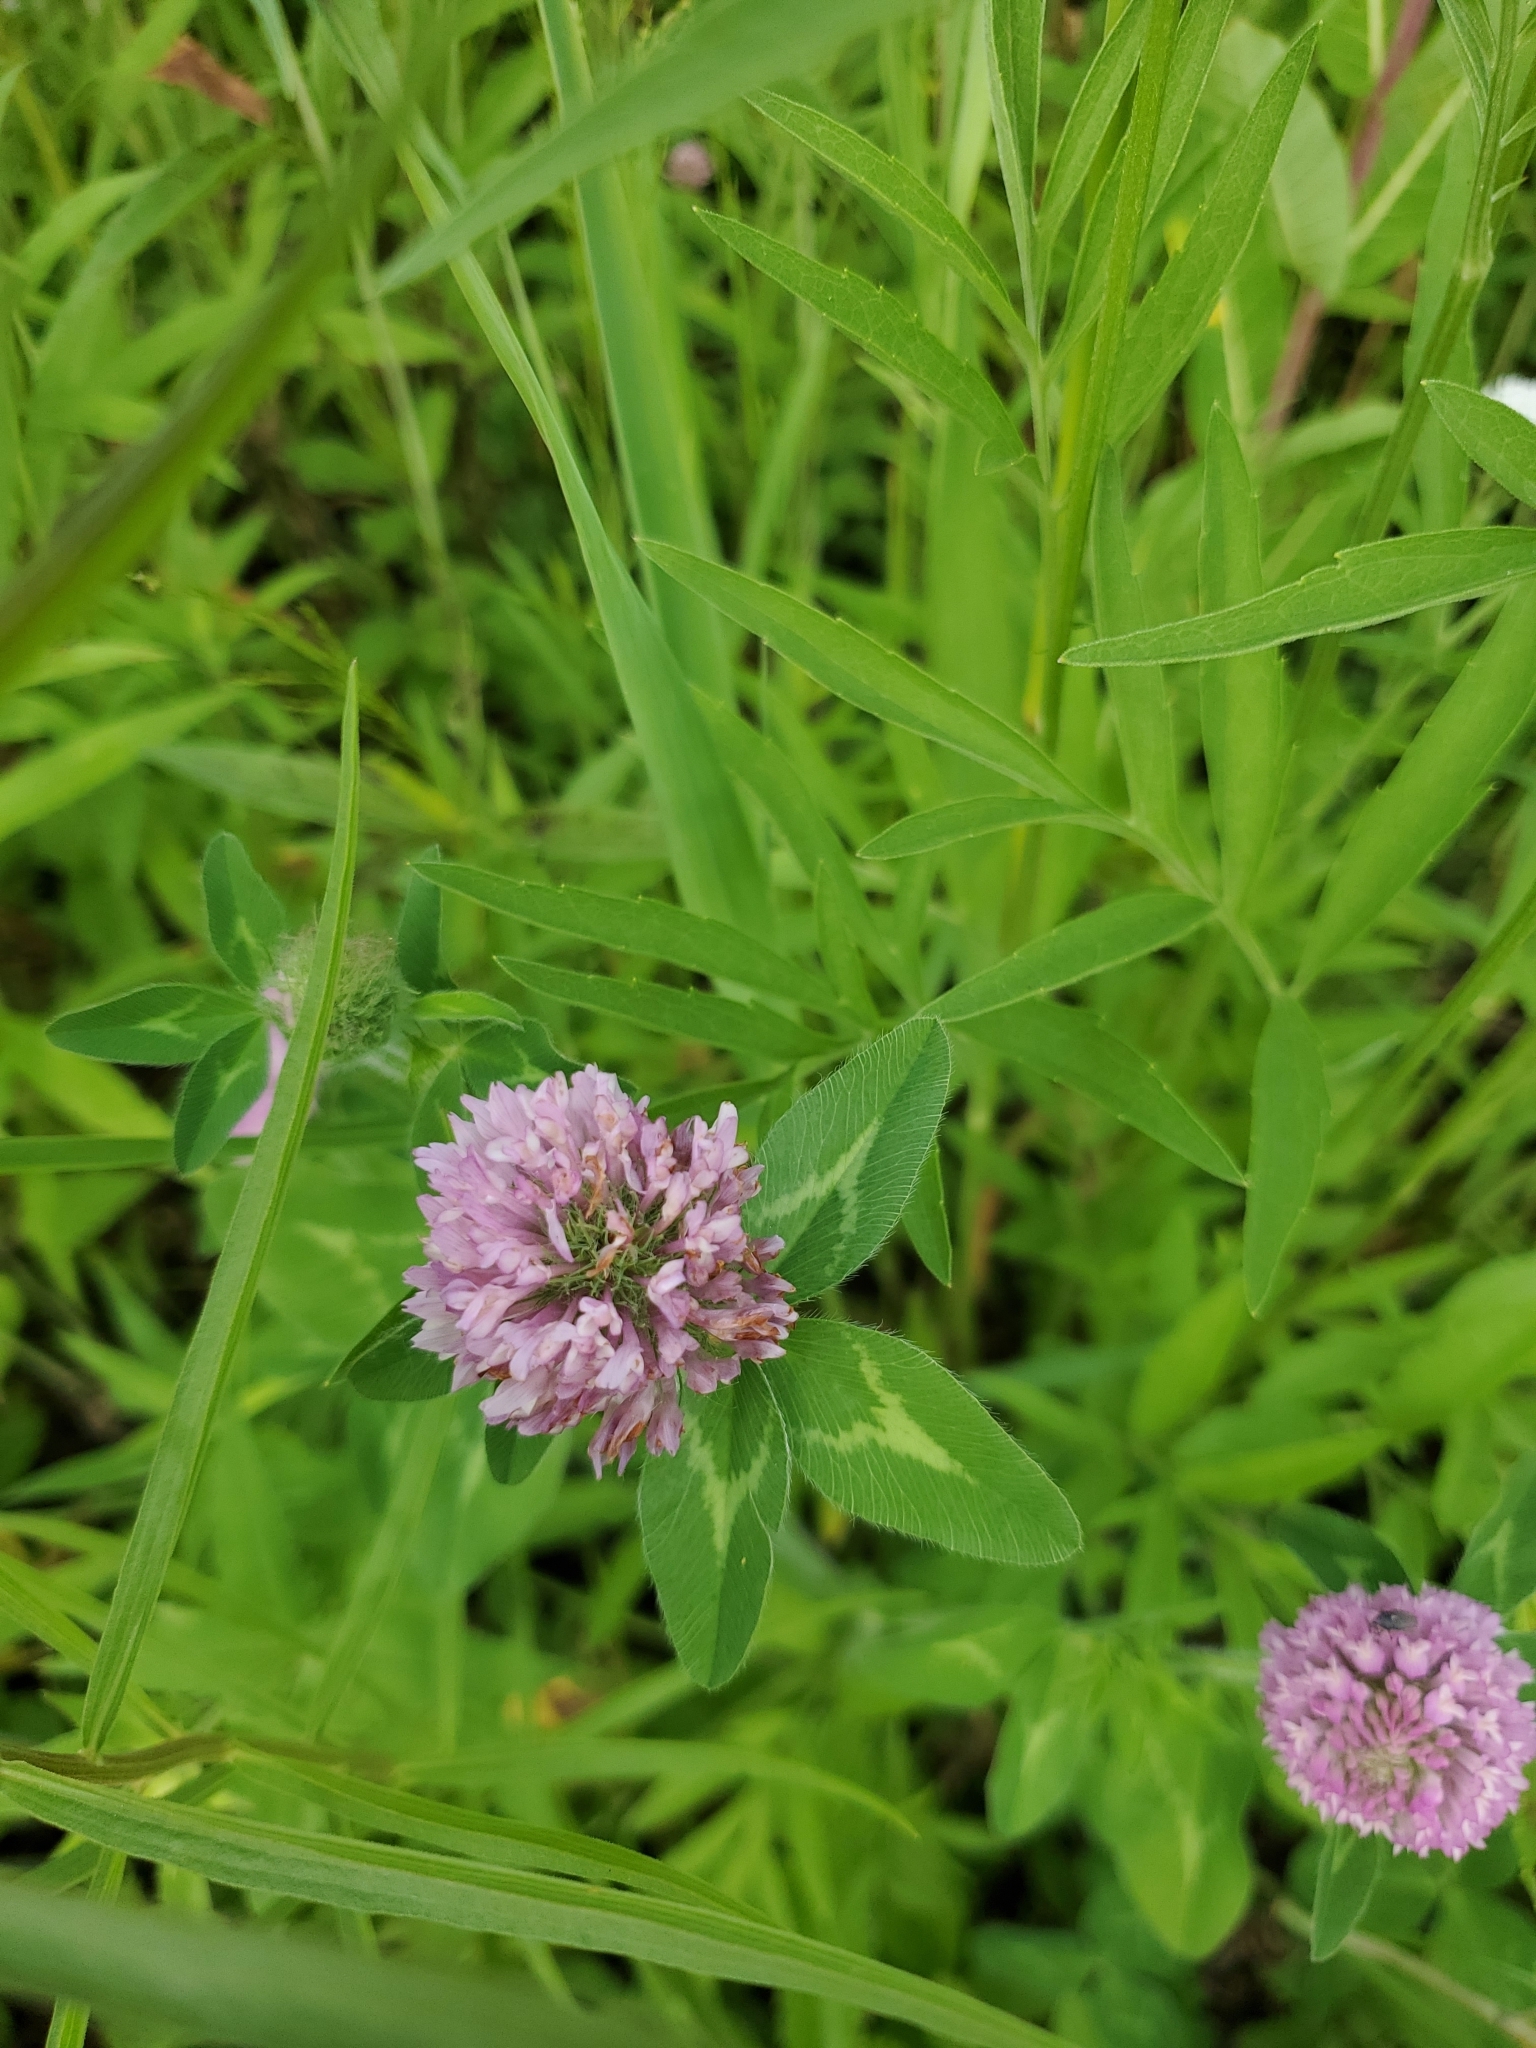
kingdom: Plantae
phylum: Tracheophyta
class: Magnoliopsida
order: Fabales
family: Fabaceae
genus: Trifolium
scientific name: Trifolium pratense
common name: Red clover
